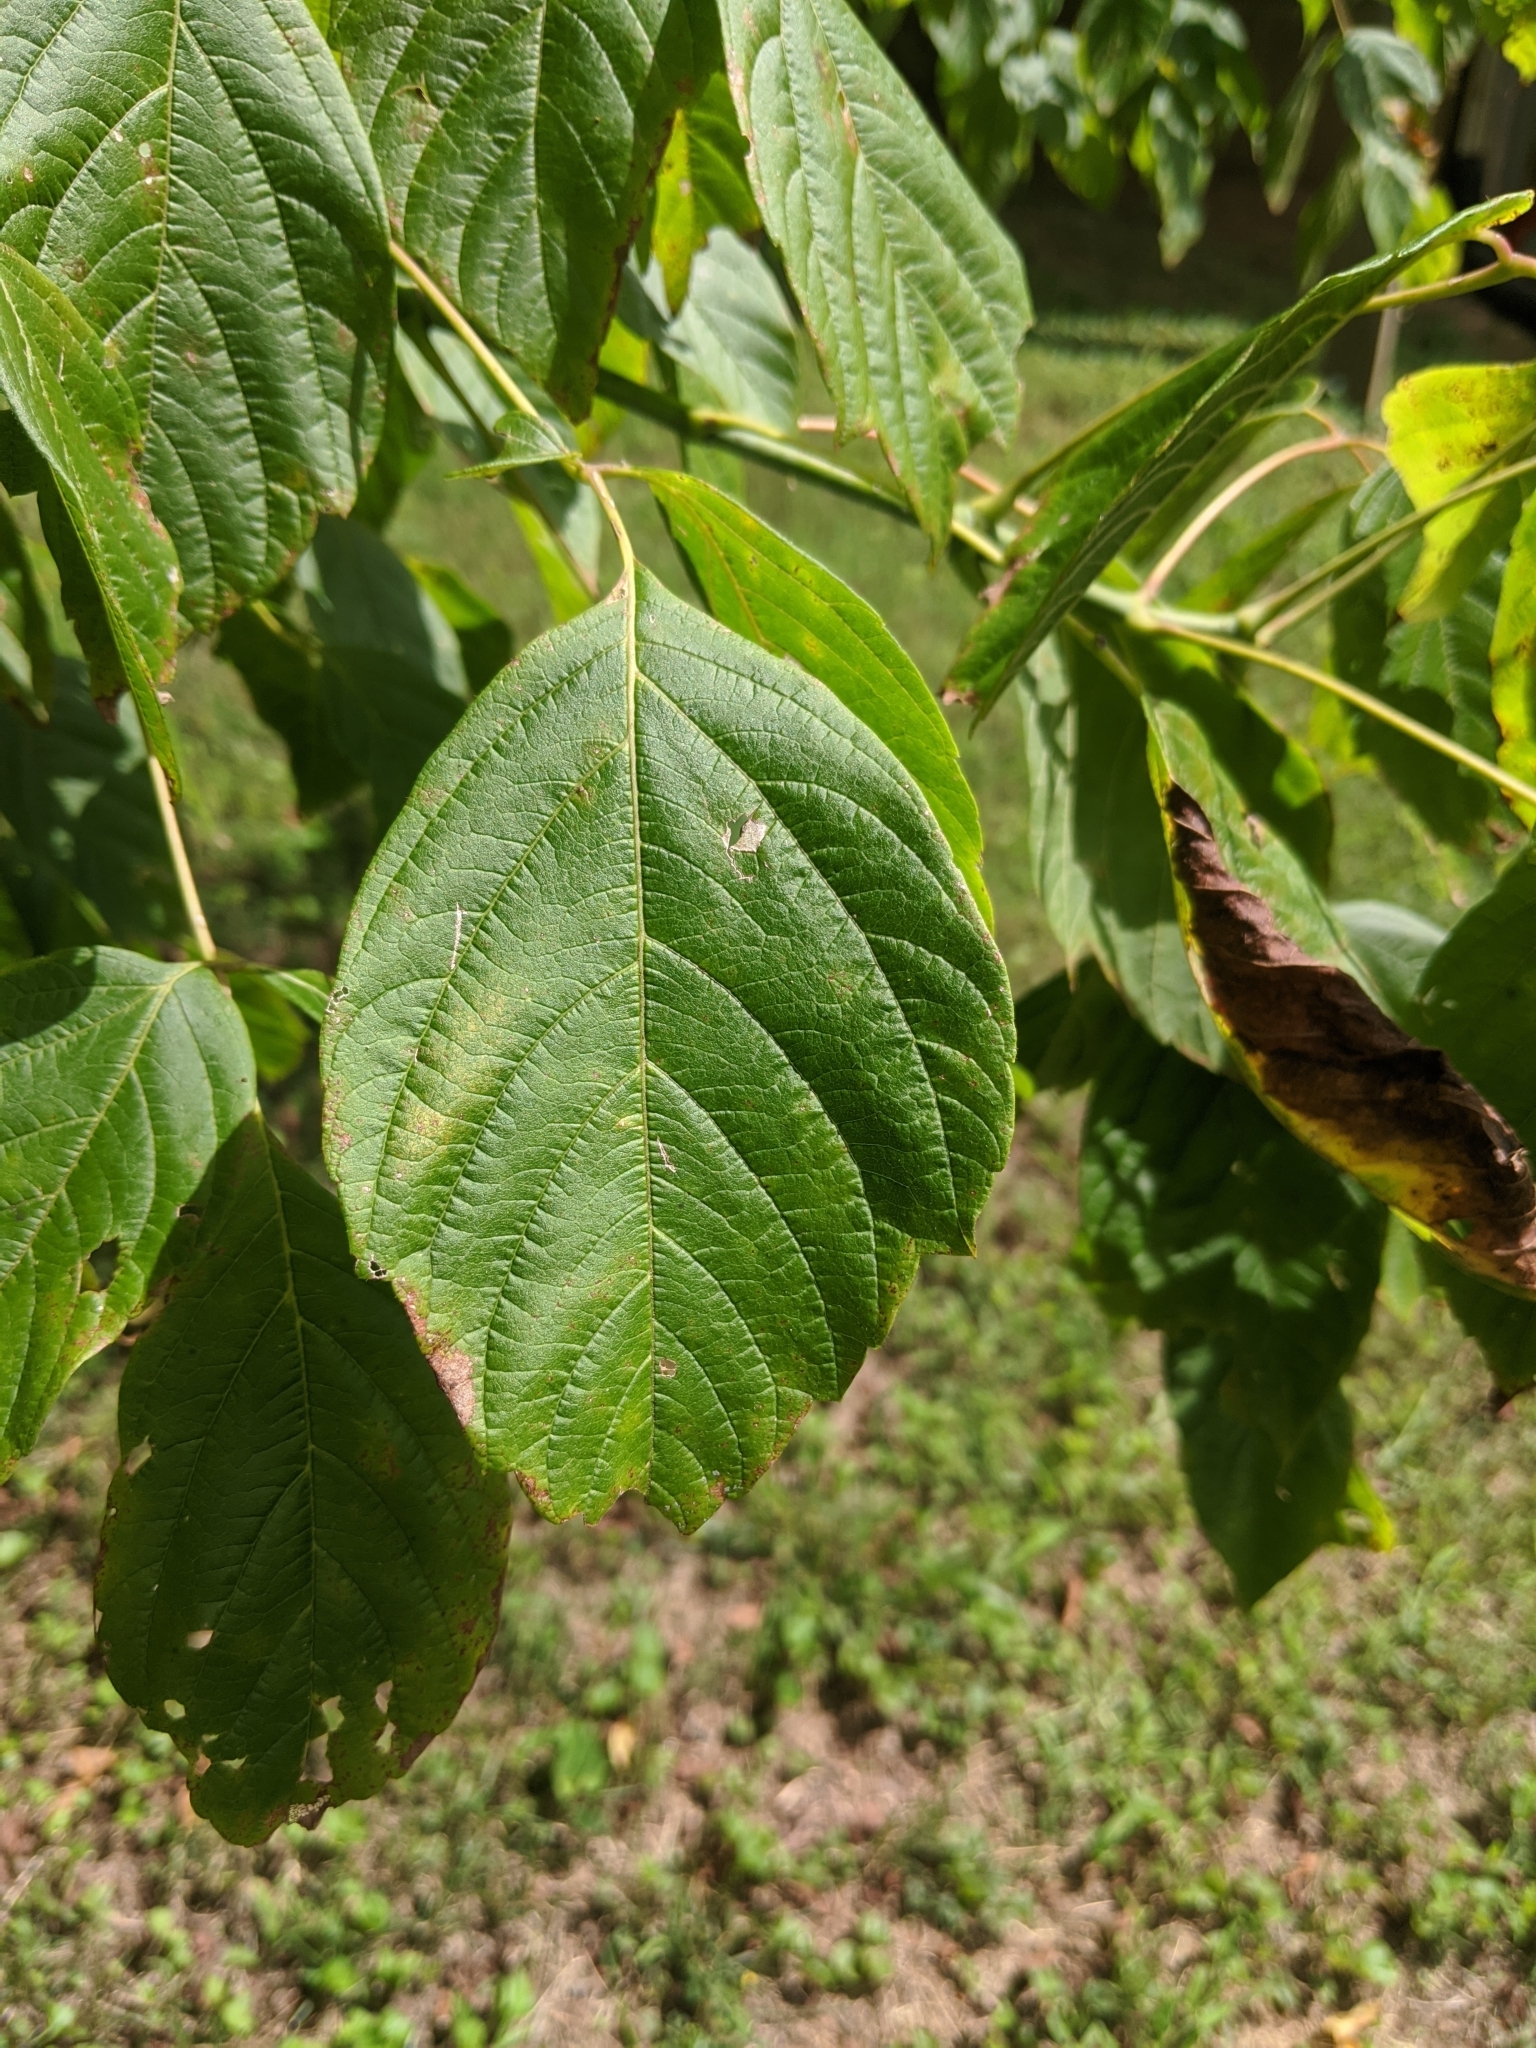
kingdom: Plantae
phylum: Tracheophyta
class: Magnoliopsida
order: Sapindales
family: Sapindaceae
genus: Acer
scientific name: Acer negundo
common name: Ashleaf maple
